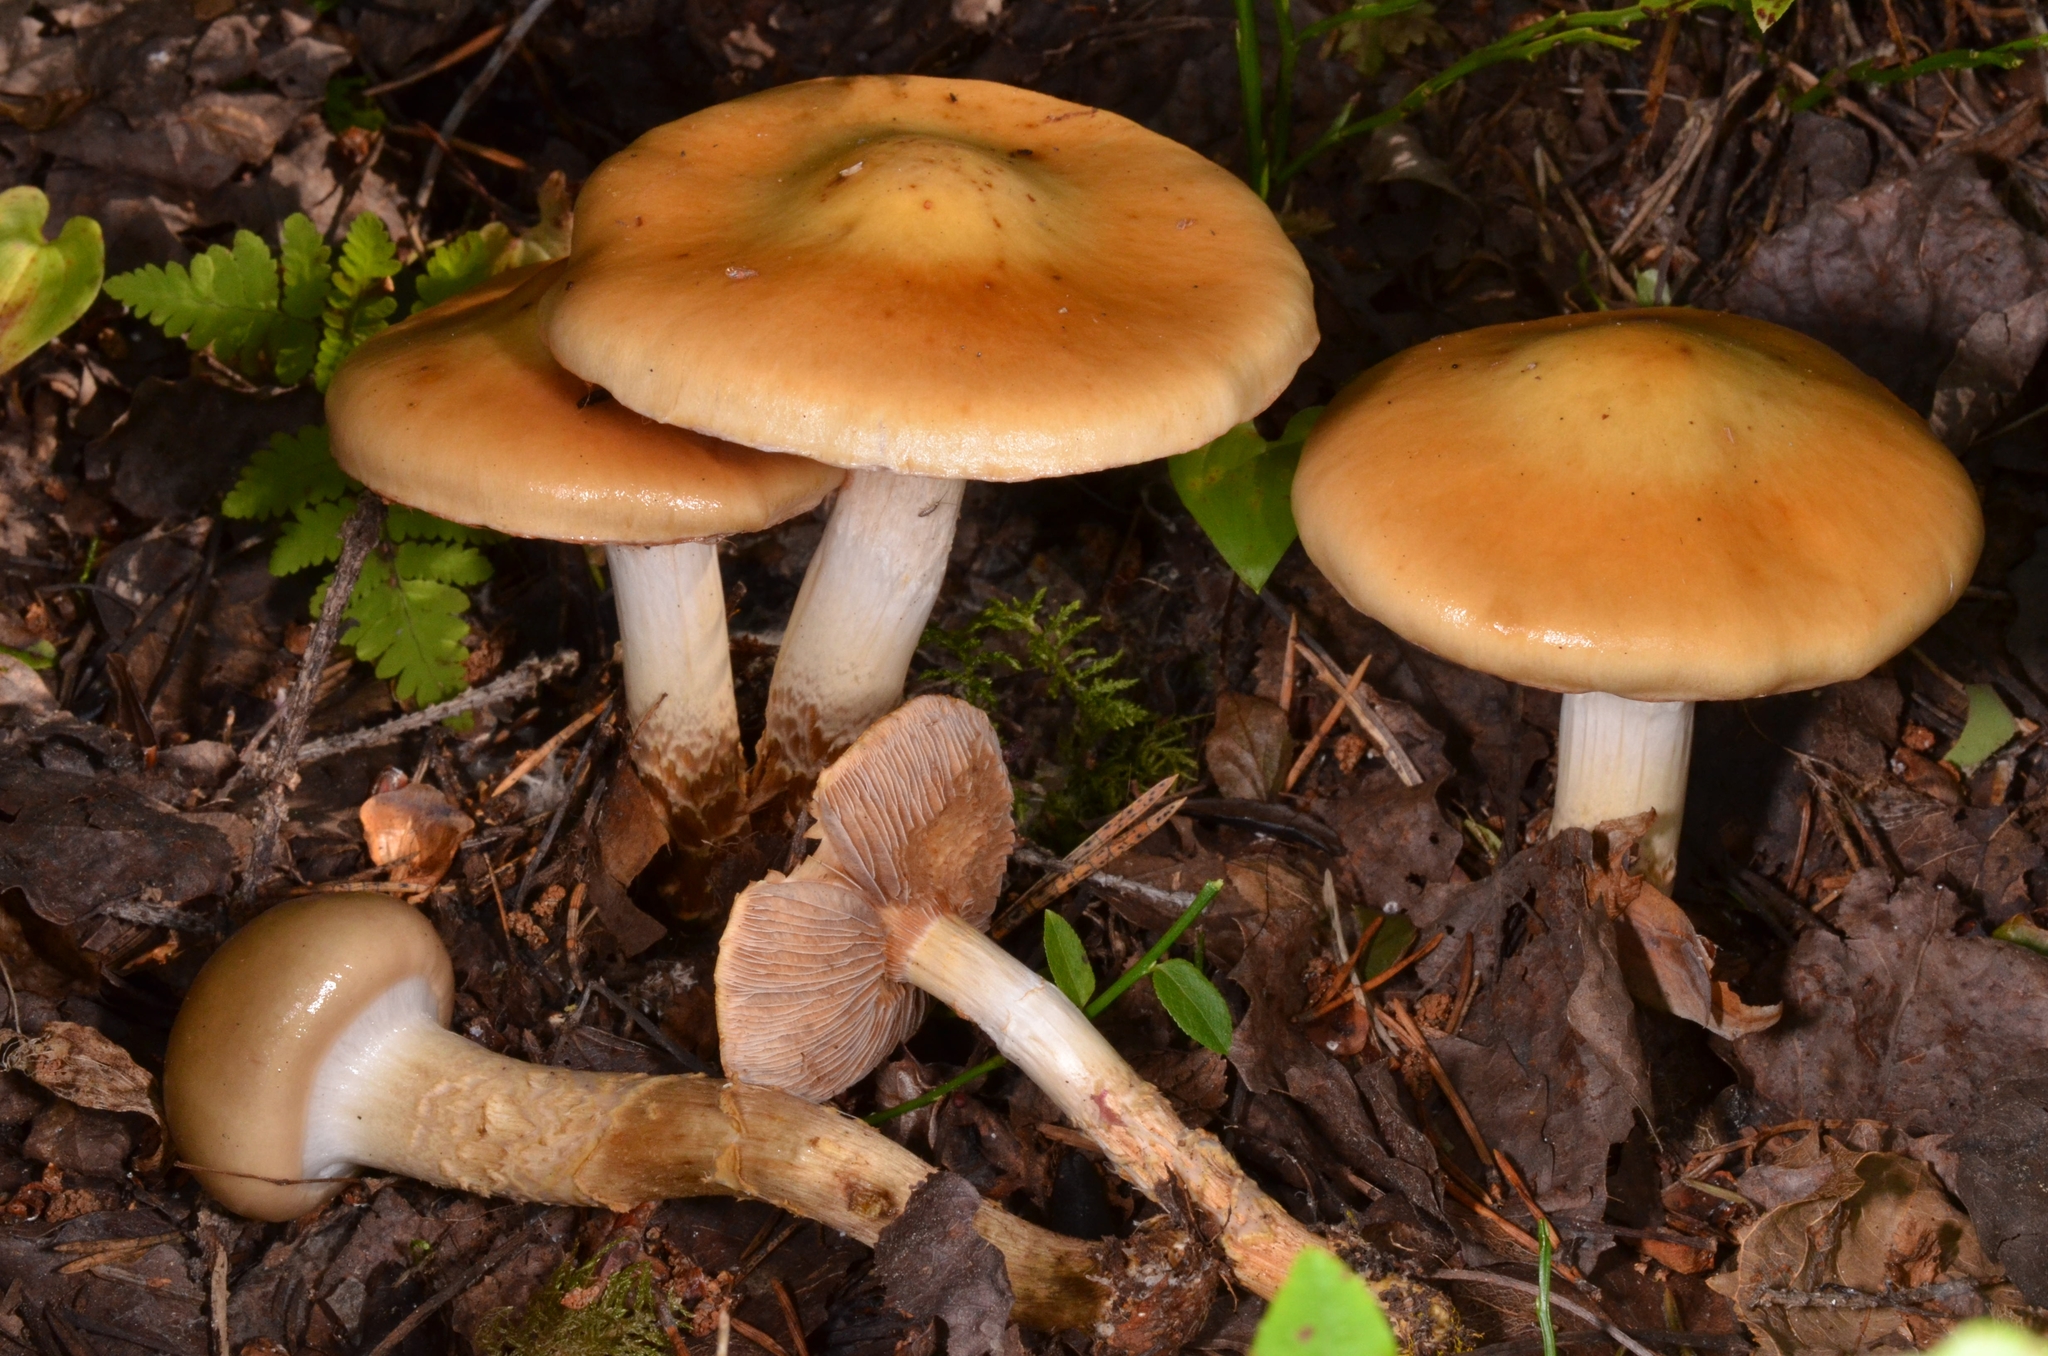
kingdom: Fungi
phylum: Basidiomycota
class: Agaricomycetes
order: Agaricales
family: Cortinariaceae
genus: Cortinarius
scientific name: Cortinarius trivialis
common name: Girdled webcap
